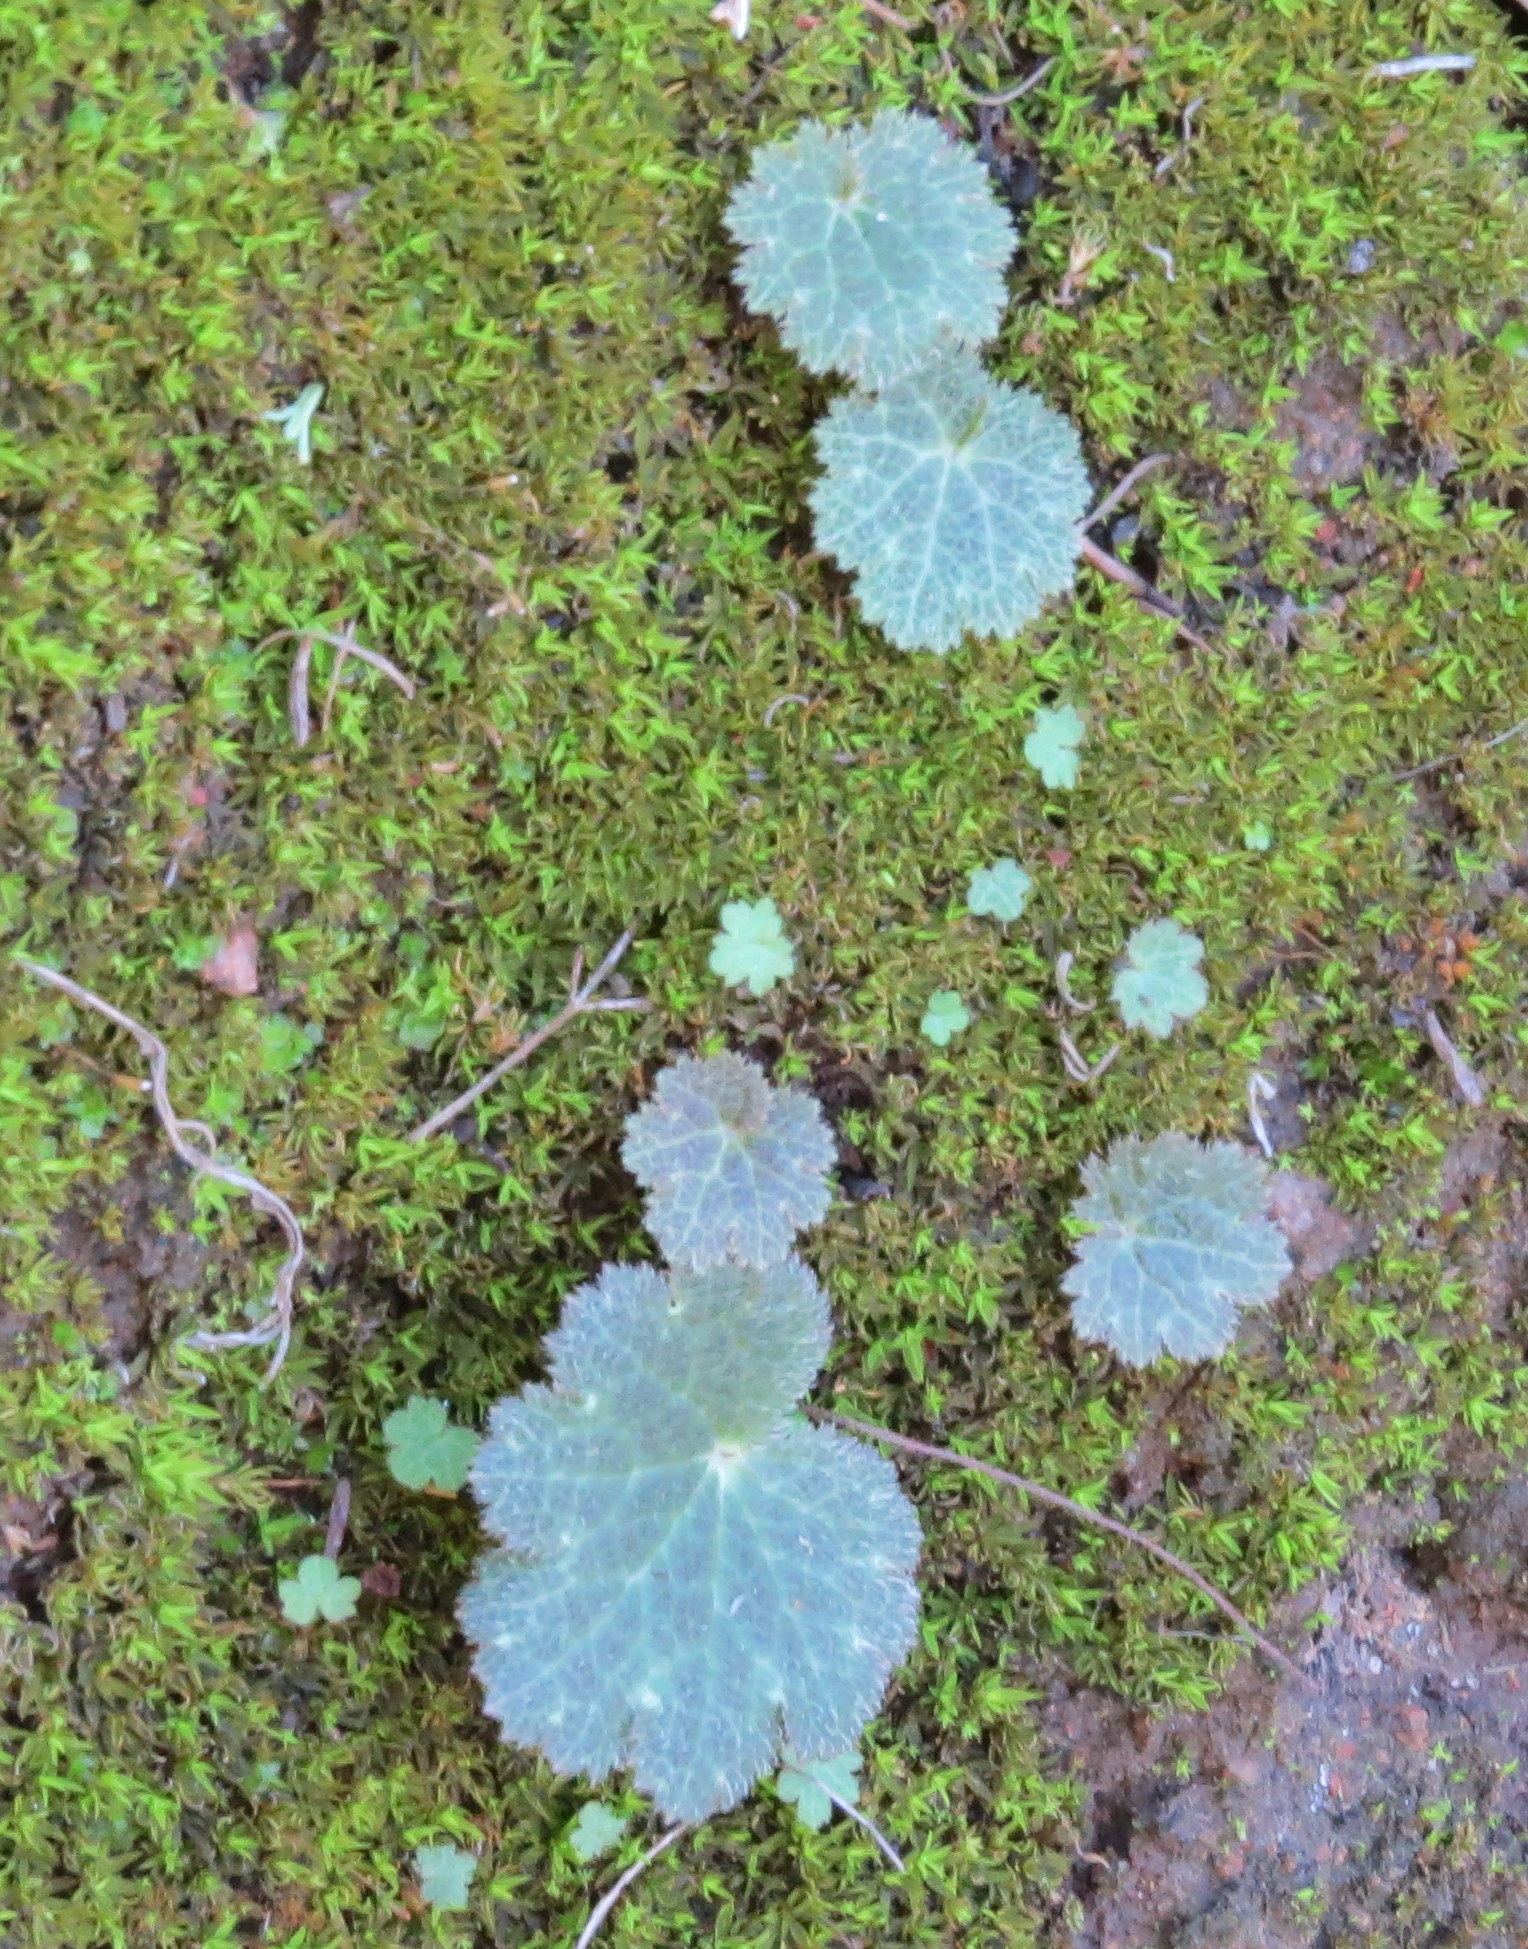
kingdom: Plantae
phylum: Tracheophyta
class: Magnoliopsida
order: Saxifragales
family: Saxifragaceae
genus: Jepsonia
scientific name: Jepsonia parryi
